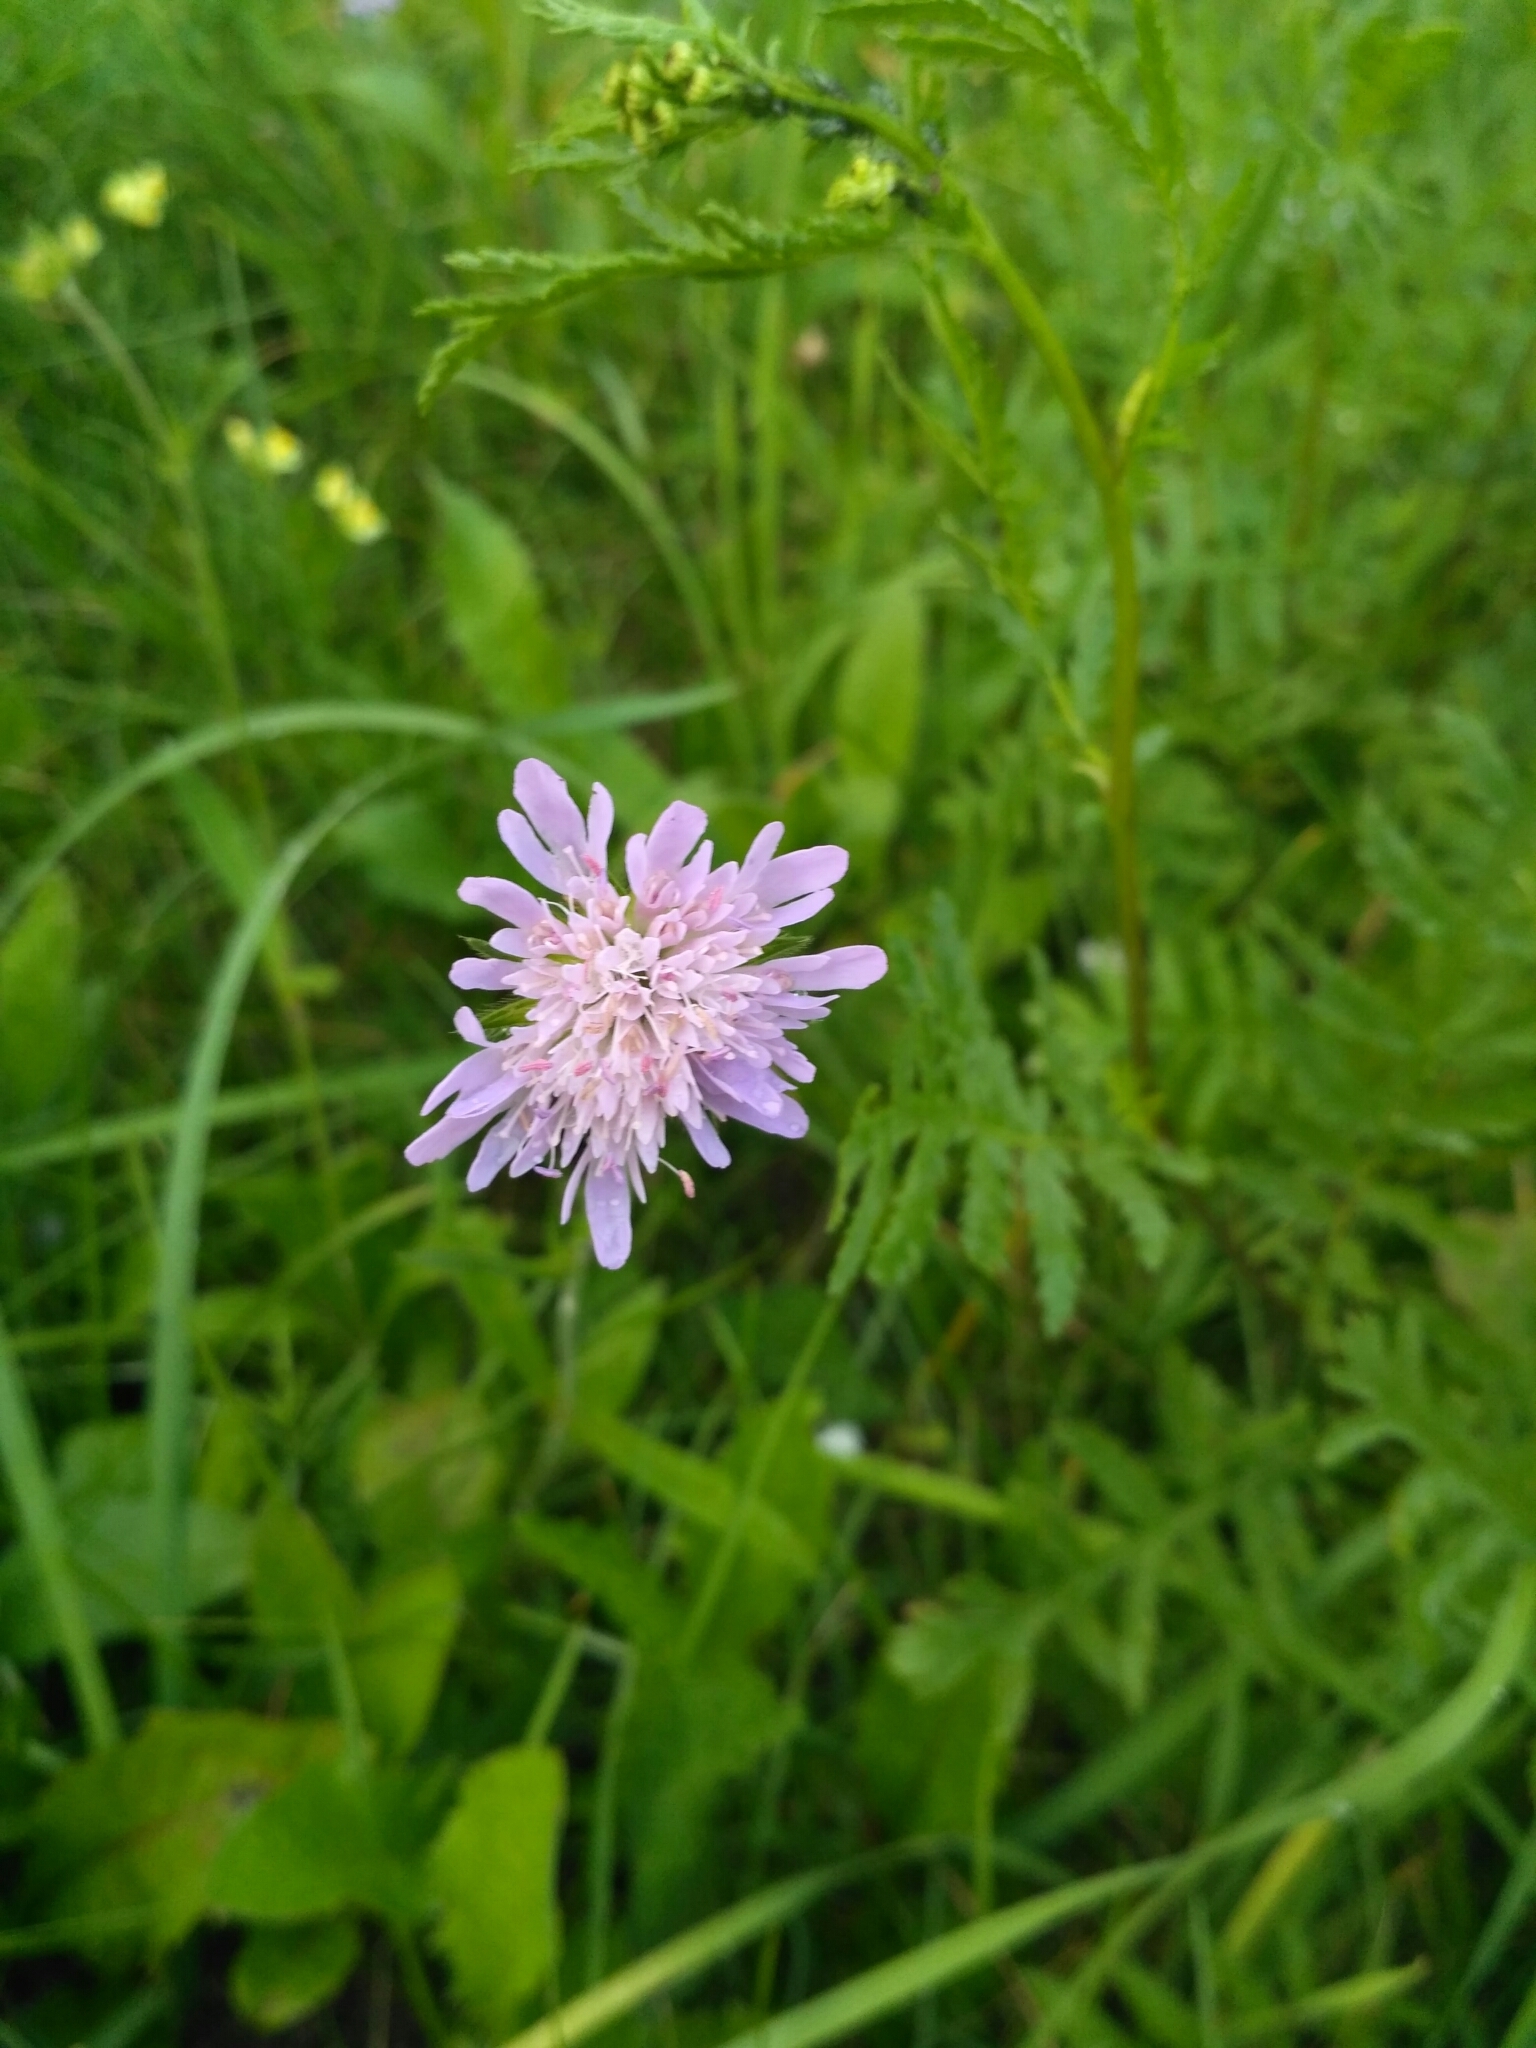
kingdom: Plantae
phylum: Tracheophyta
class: Magnoliopsida
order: Dipsacales
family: Caprifoliaceae
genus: Knautia
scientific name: Knautia arvensis
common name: Field scabiosa
